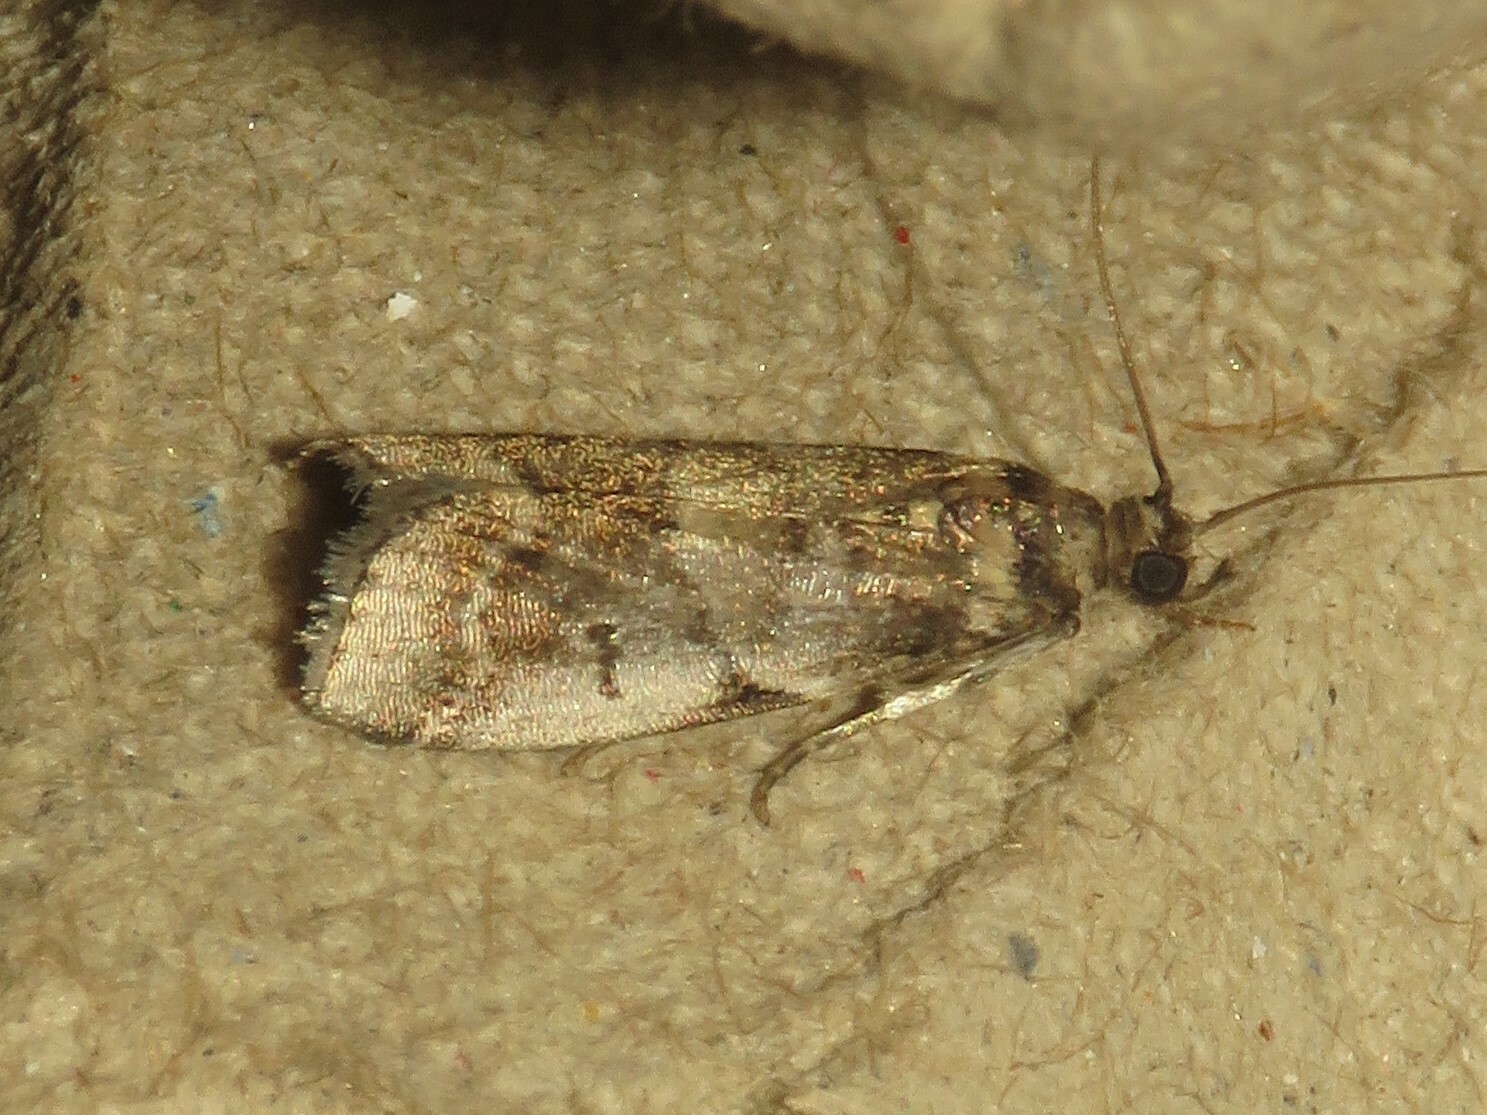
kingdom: Animalia
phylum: Arthropoda
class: Insecta
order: Lepidoptera
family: Pyralidae
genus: Acrobasis
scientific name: Acrobasis indigenella
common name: Leaf crumpler moth
